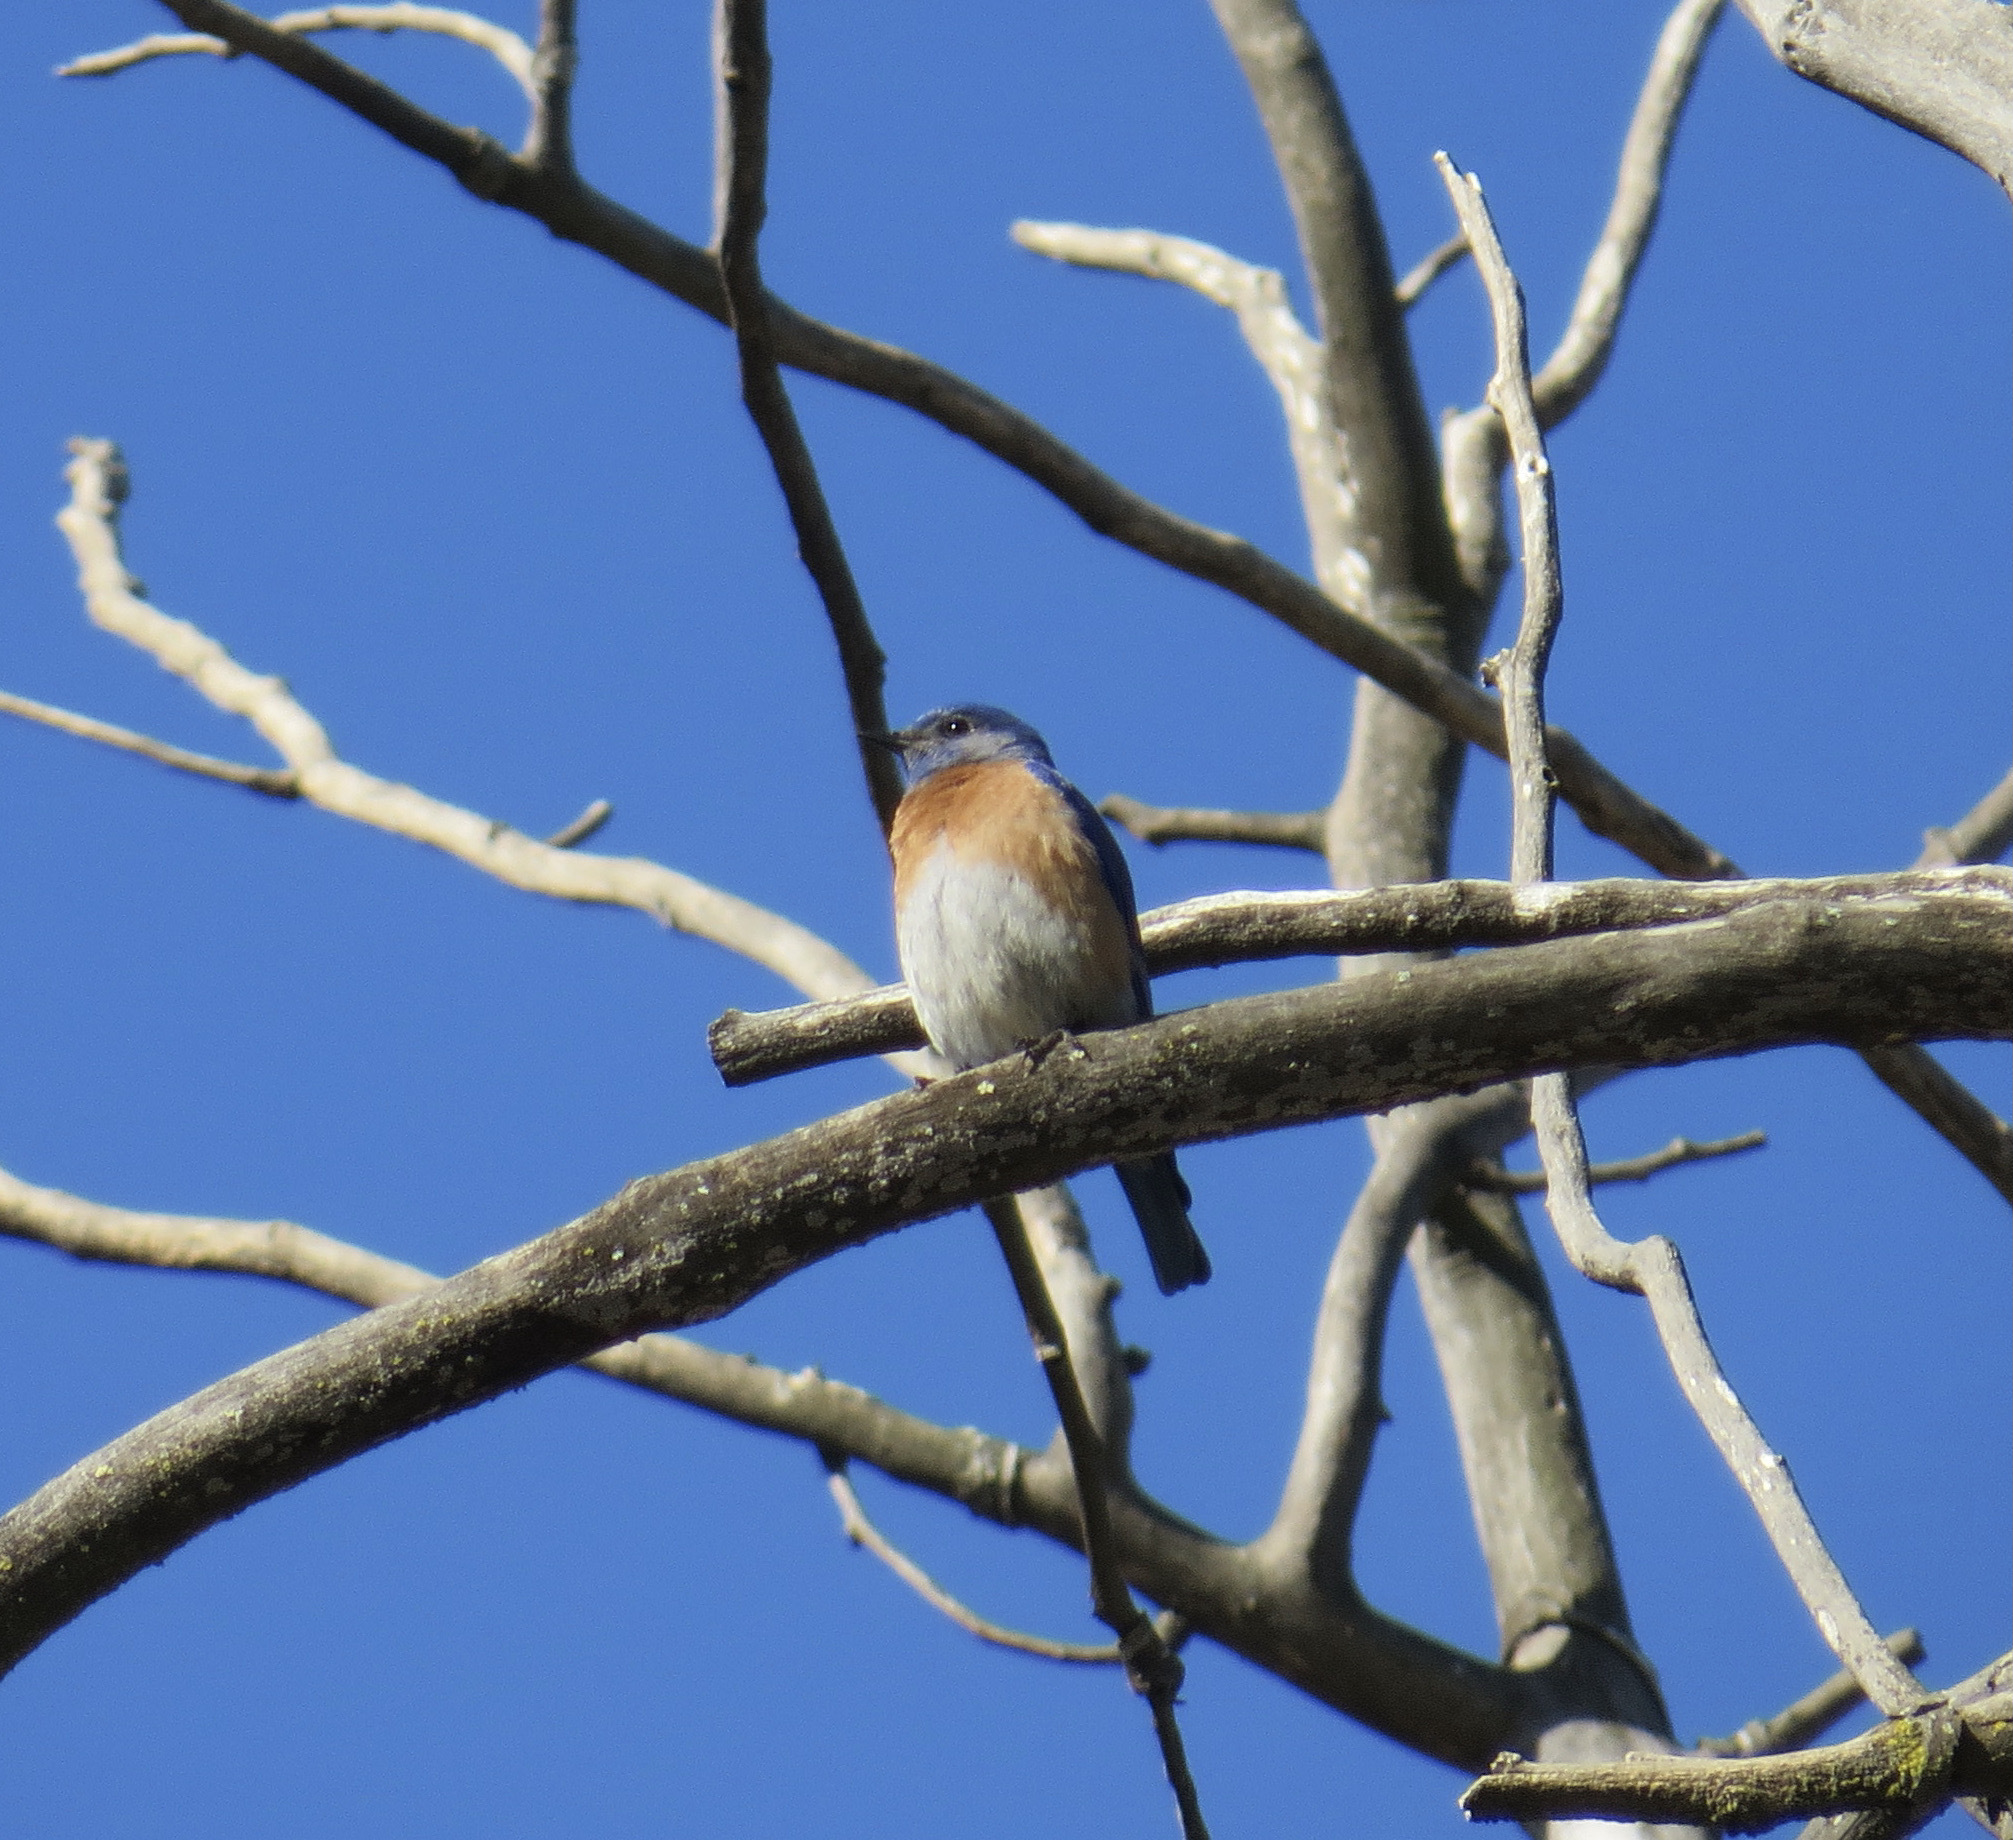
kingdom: Animalia
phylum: Chordata
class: Aves
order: Passeriformes
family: Turdidae
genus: Sialia
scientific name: Sialia mexicana
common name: Western bluebird
